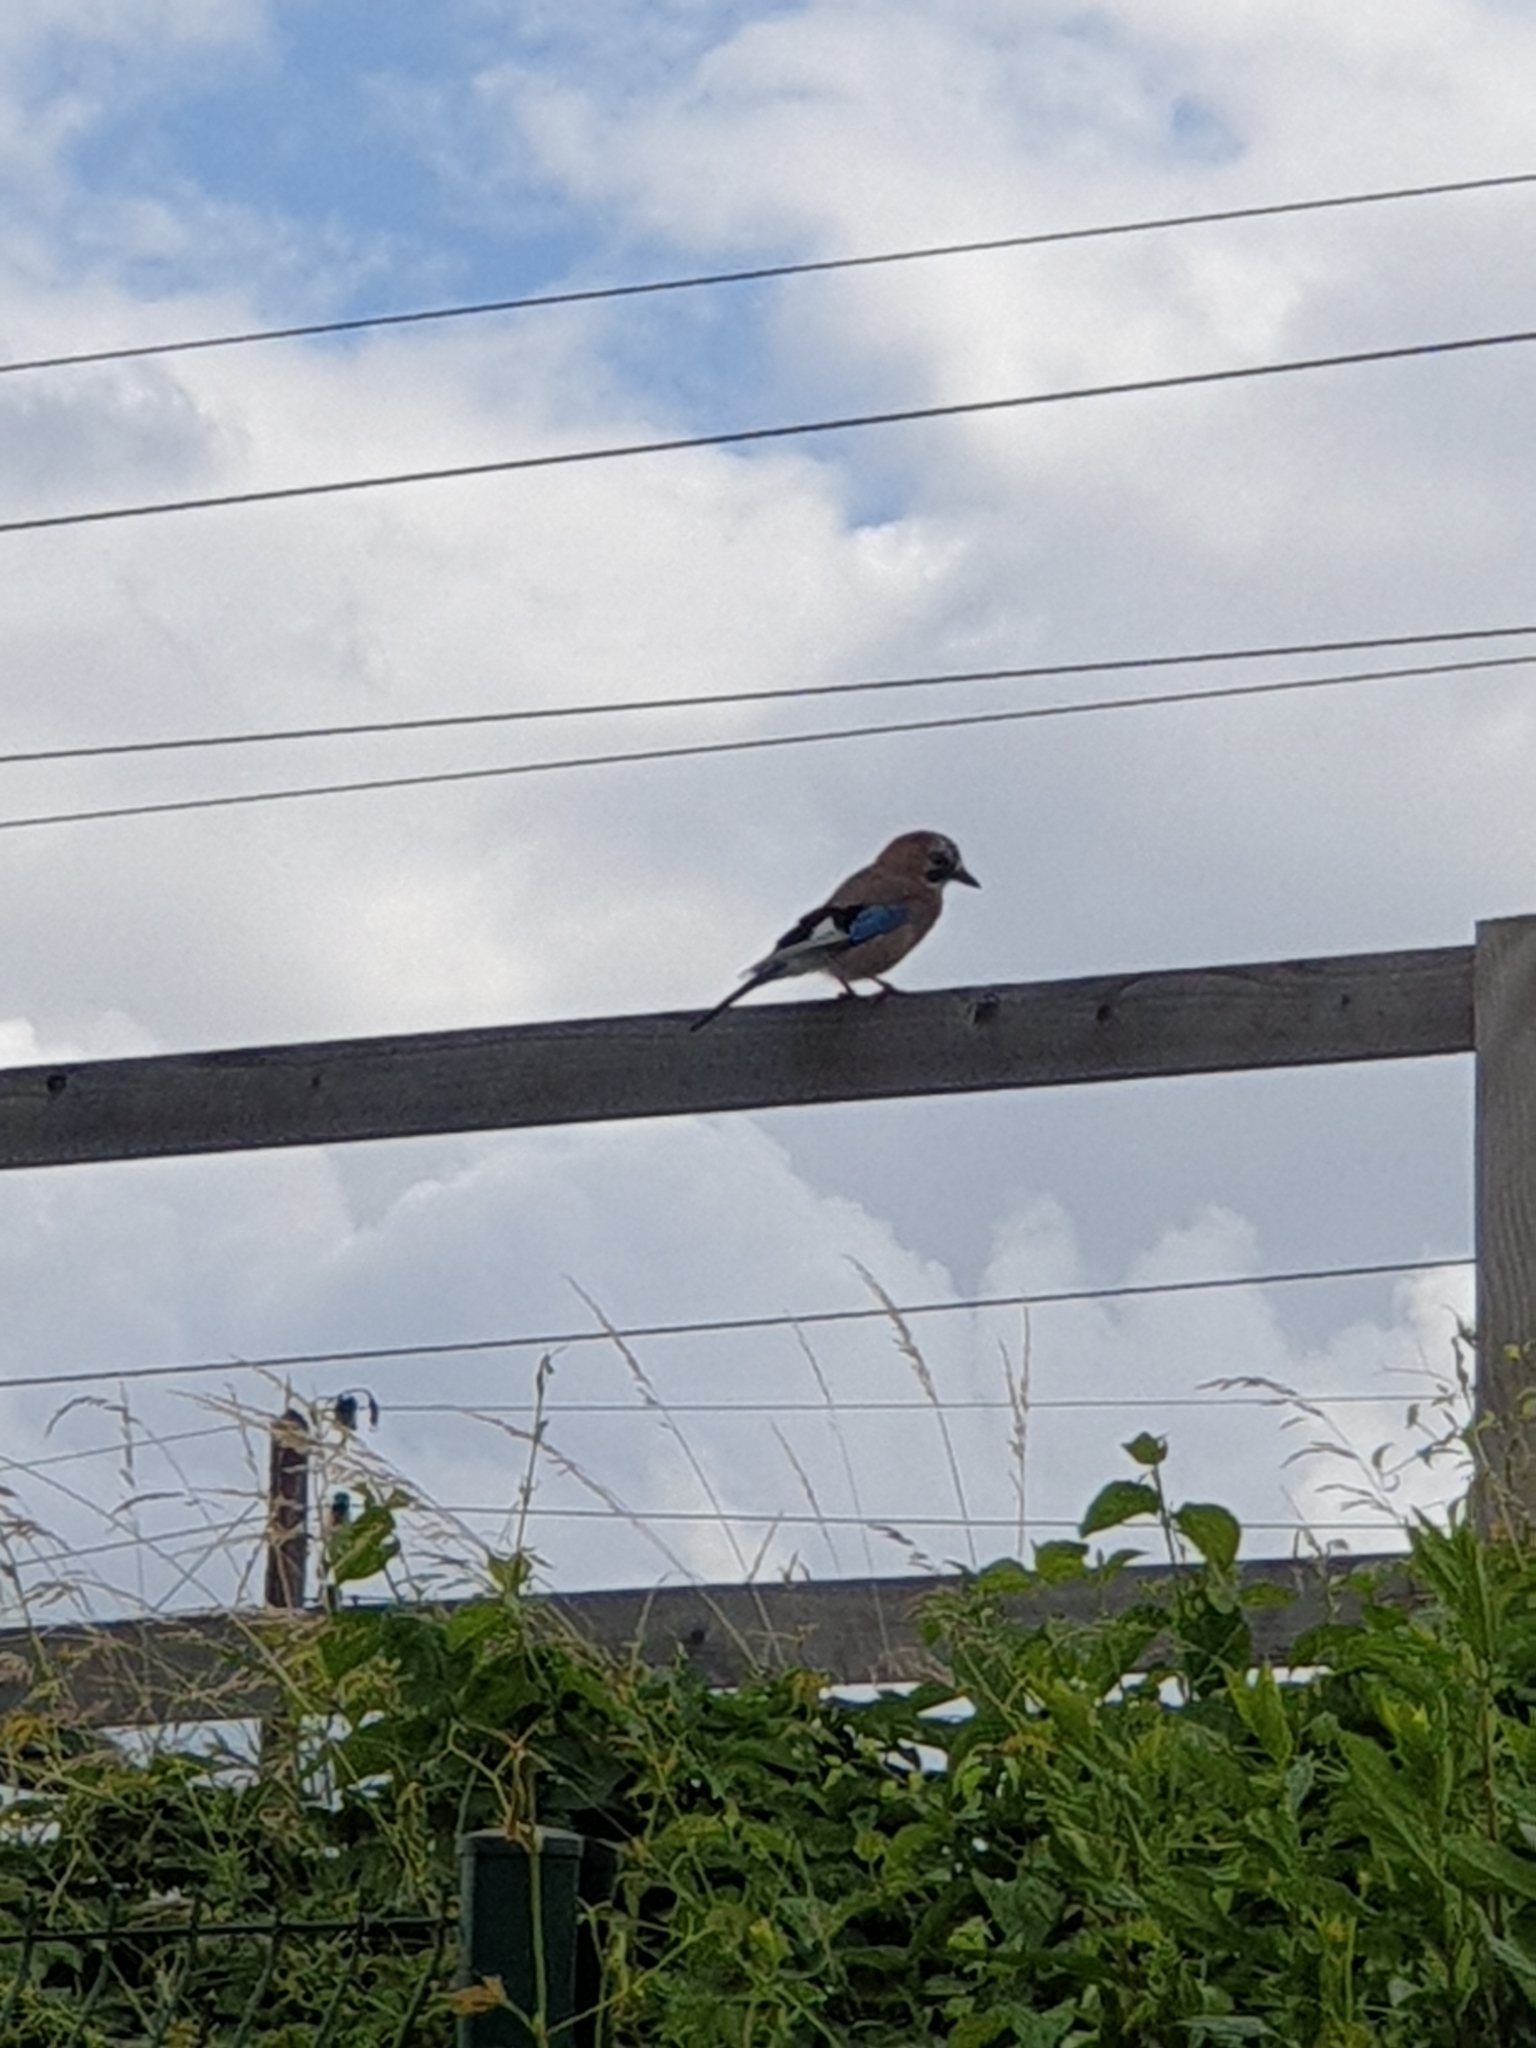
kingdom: Animalia
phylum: Chordata
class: Aves
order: Passeriformes
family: Corvidae
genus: Garrulus
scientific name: Garrulus glandarius
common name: Eurasian jay
